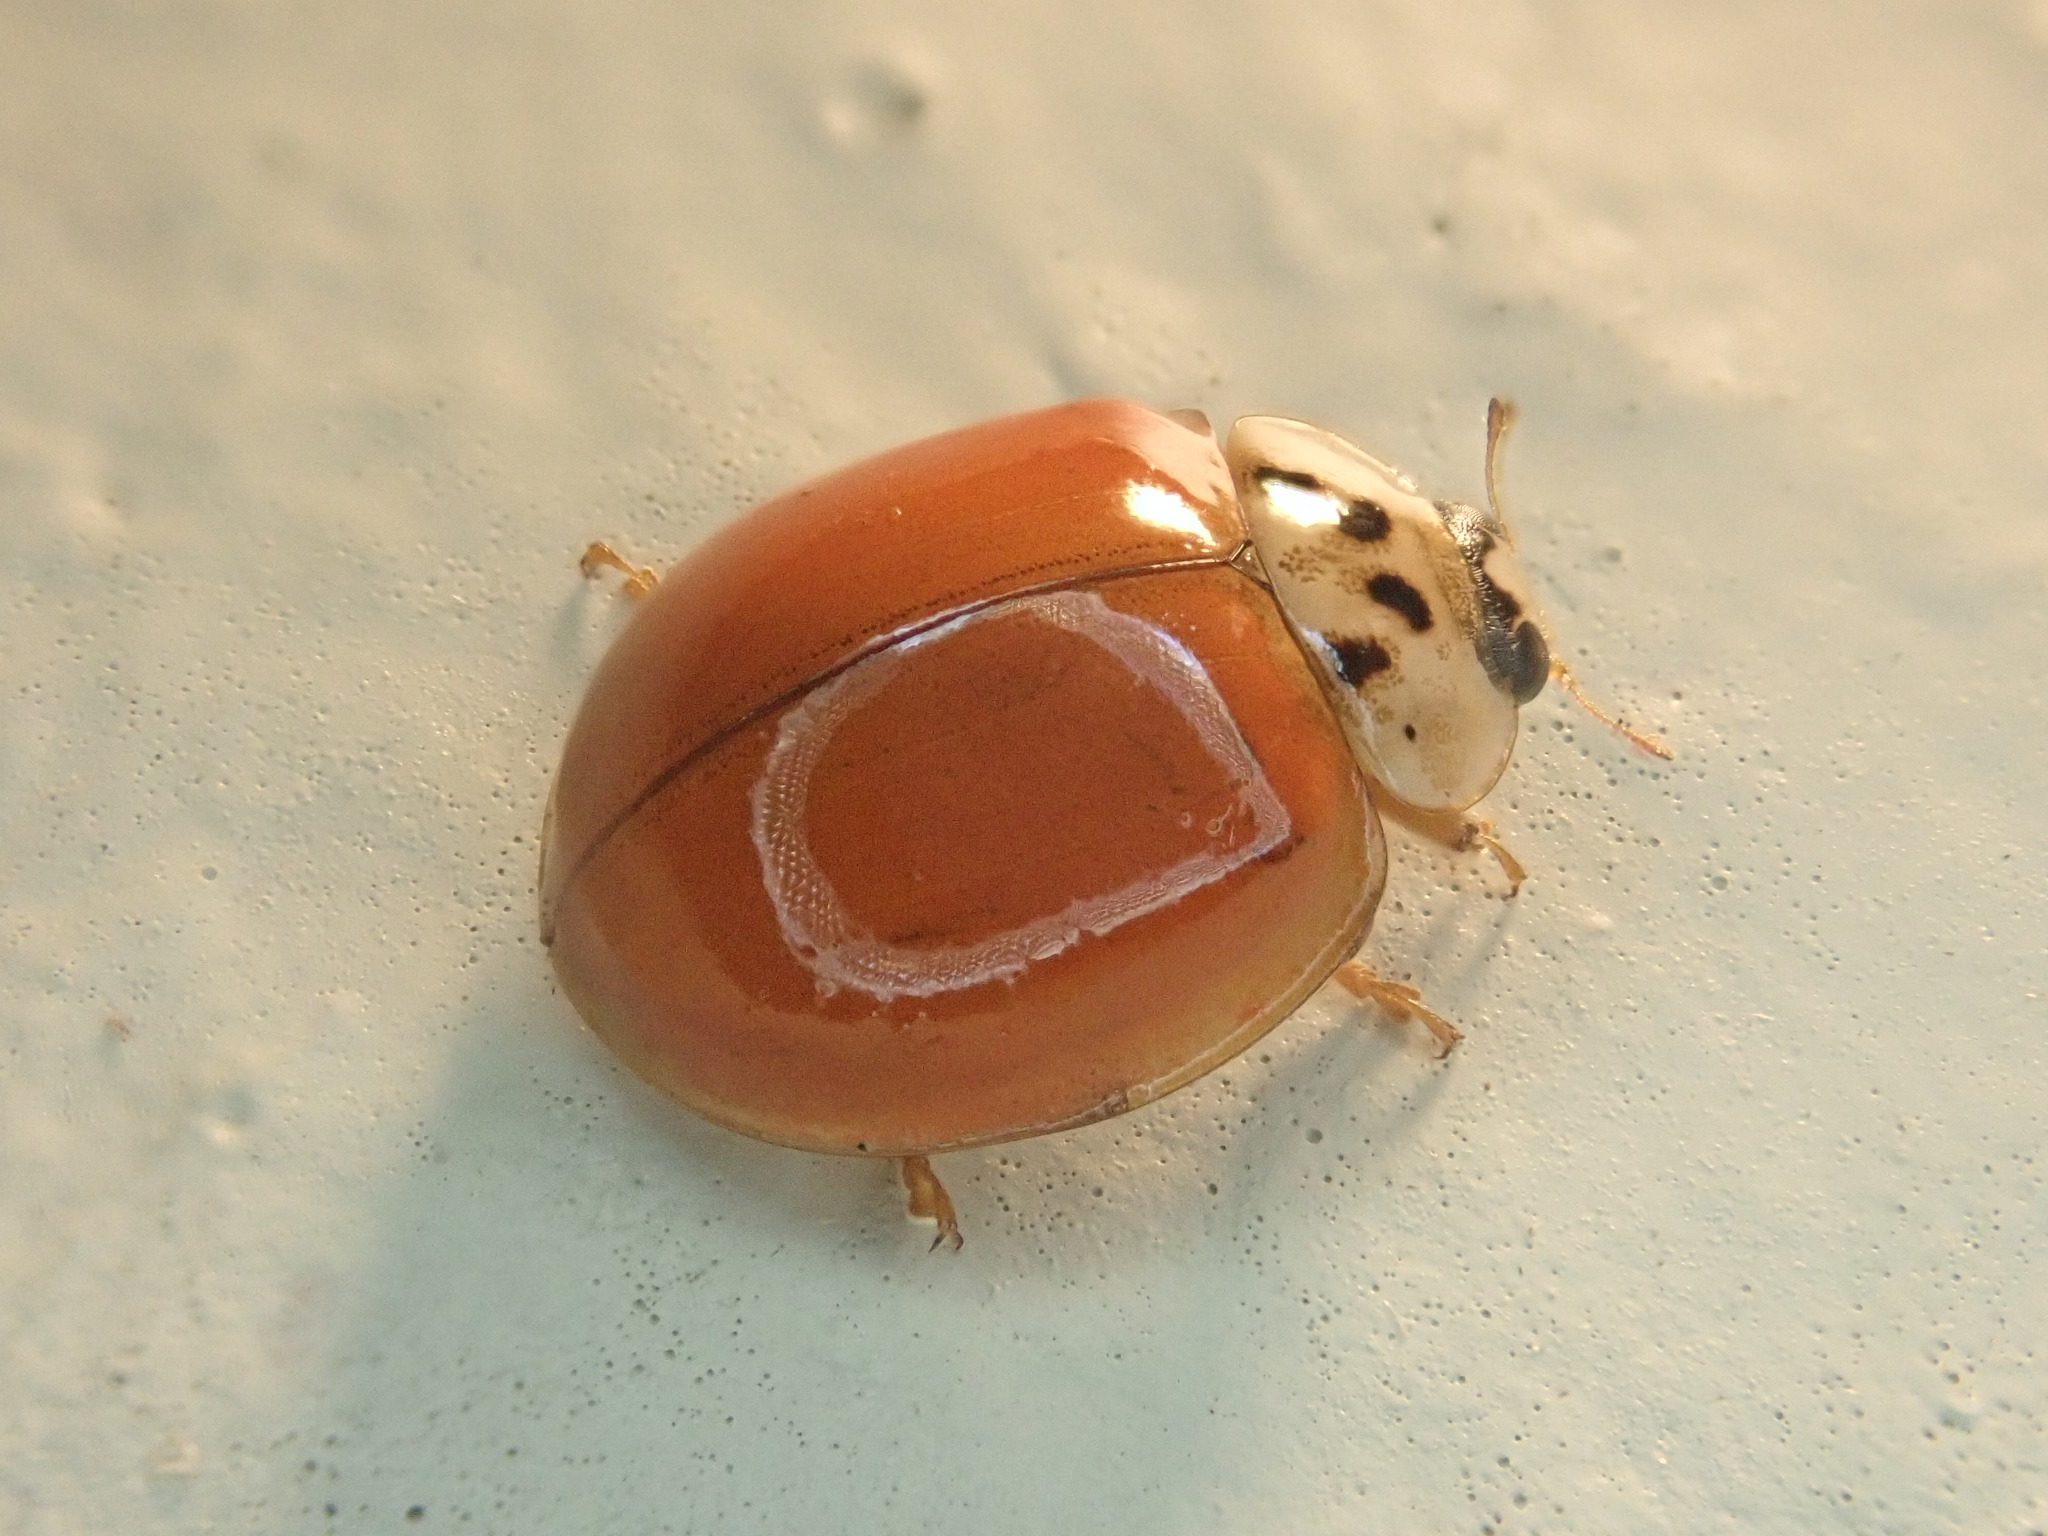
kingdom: Animalia
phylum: Arthropoda
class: Insecta
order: Coleoptera
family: Coccinellidae
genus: Harmonia
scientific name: Harmonia axyridis
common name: Harlequin ladybird
